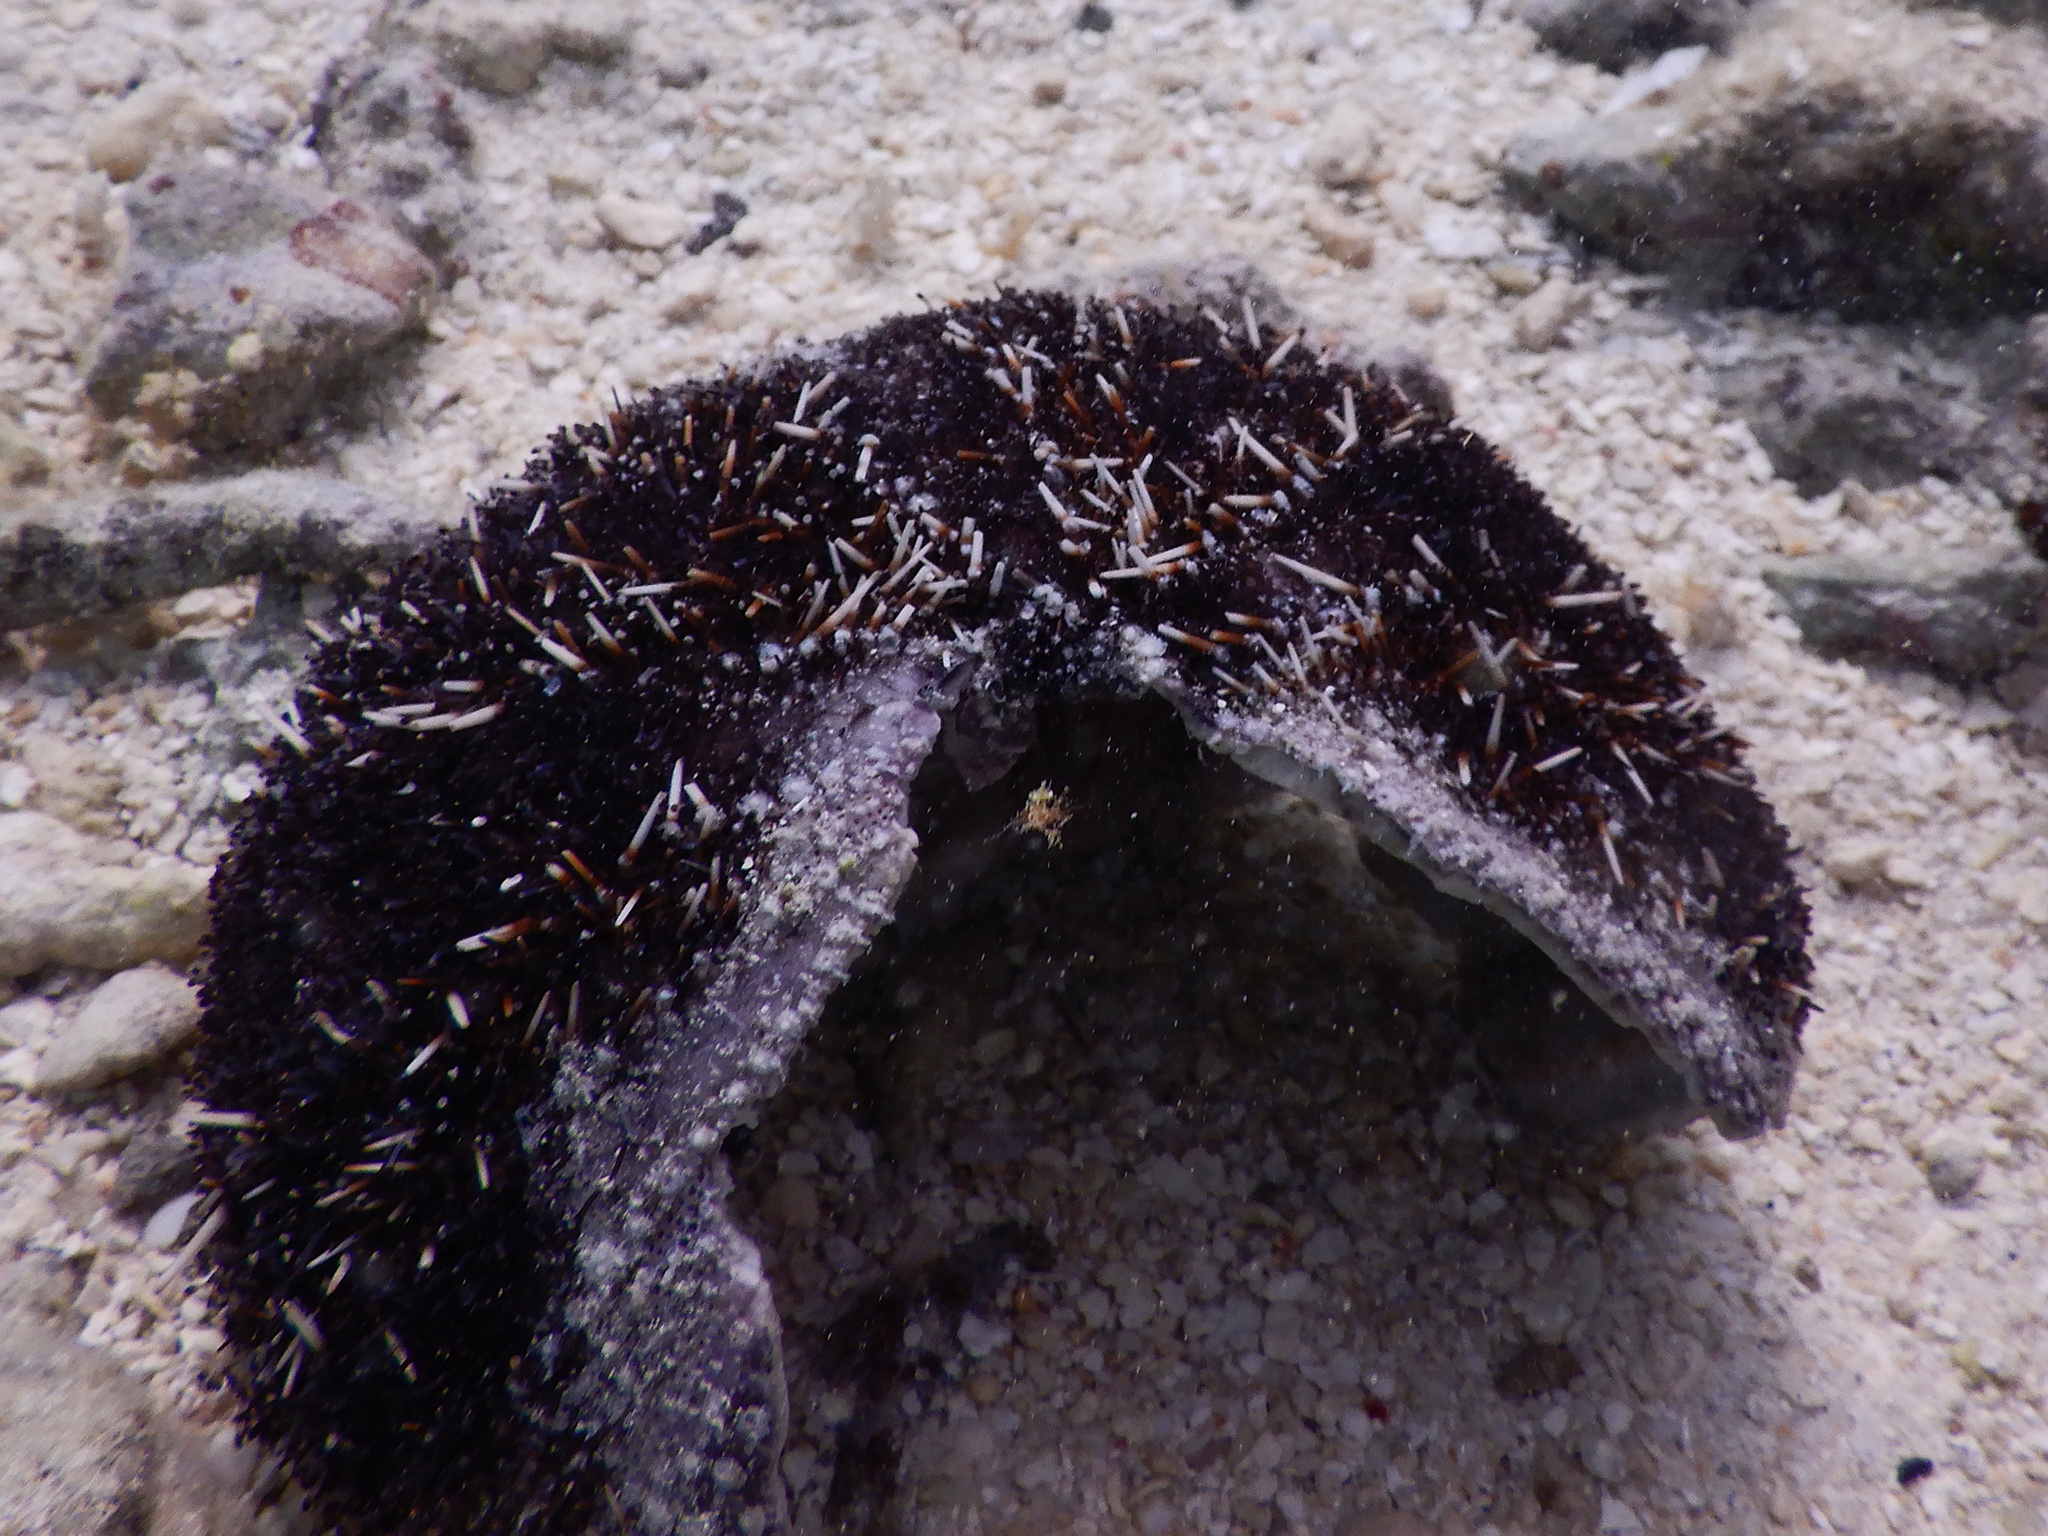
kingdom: Animalia
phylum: Echinodermata
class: Echinoidea
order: Camarodonta
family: Toxopneustidae
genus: Tripneustes
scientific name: Tripneustes gratilla
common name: Bischofsmützenseeigel
